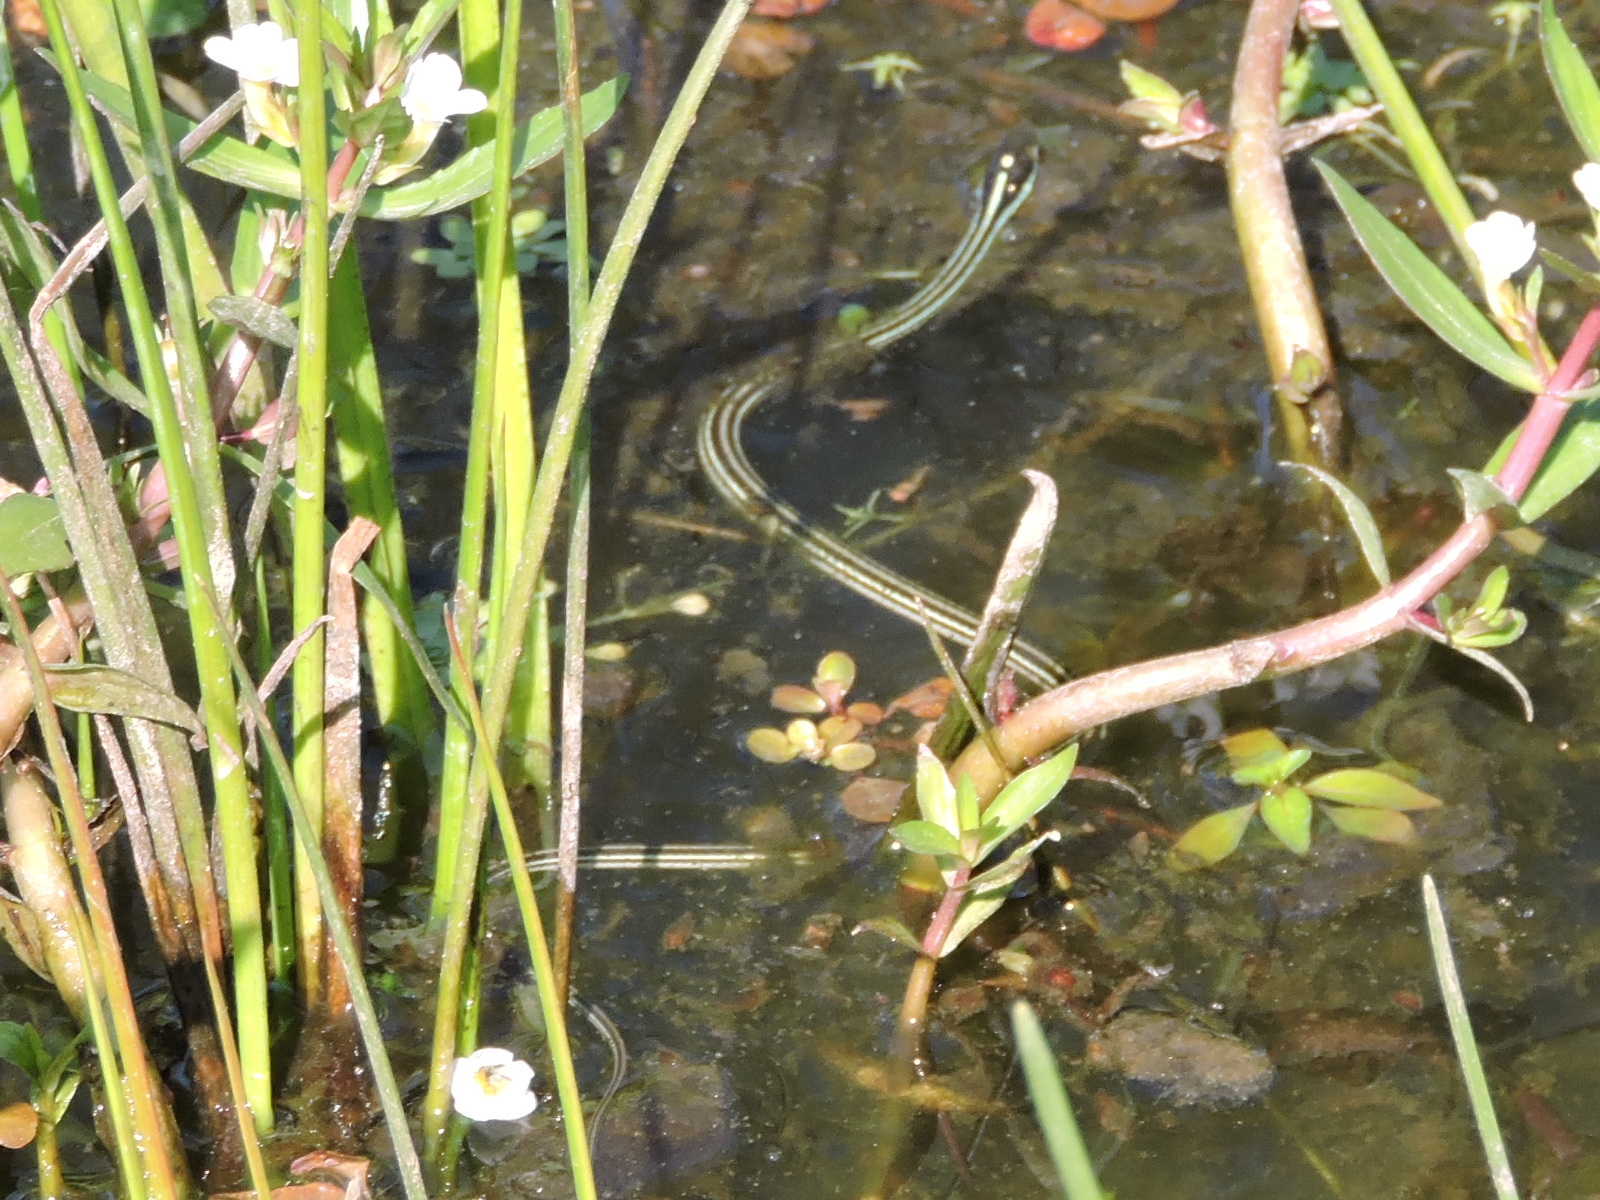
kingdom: Animalia
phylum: Chordata
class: Squamata
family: Colubridae
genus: Thamnophis
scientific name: Thamnophis proximus
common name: Western ribbon snake
